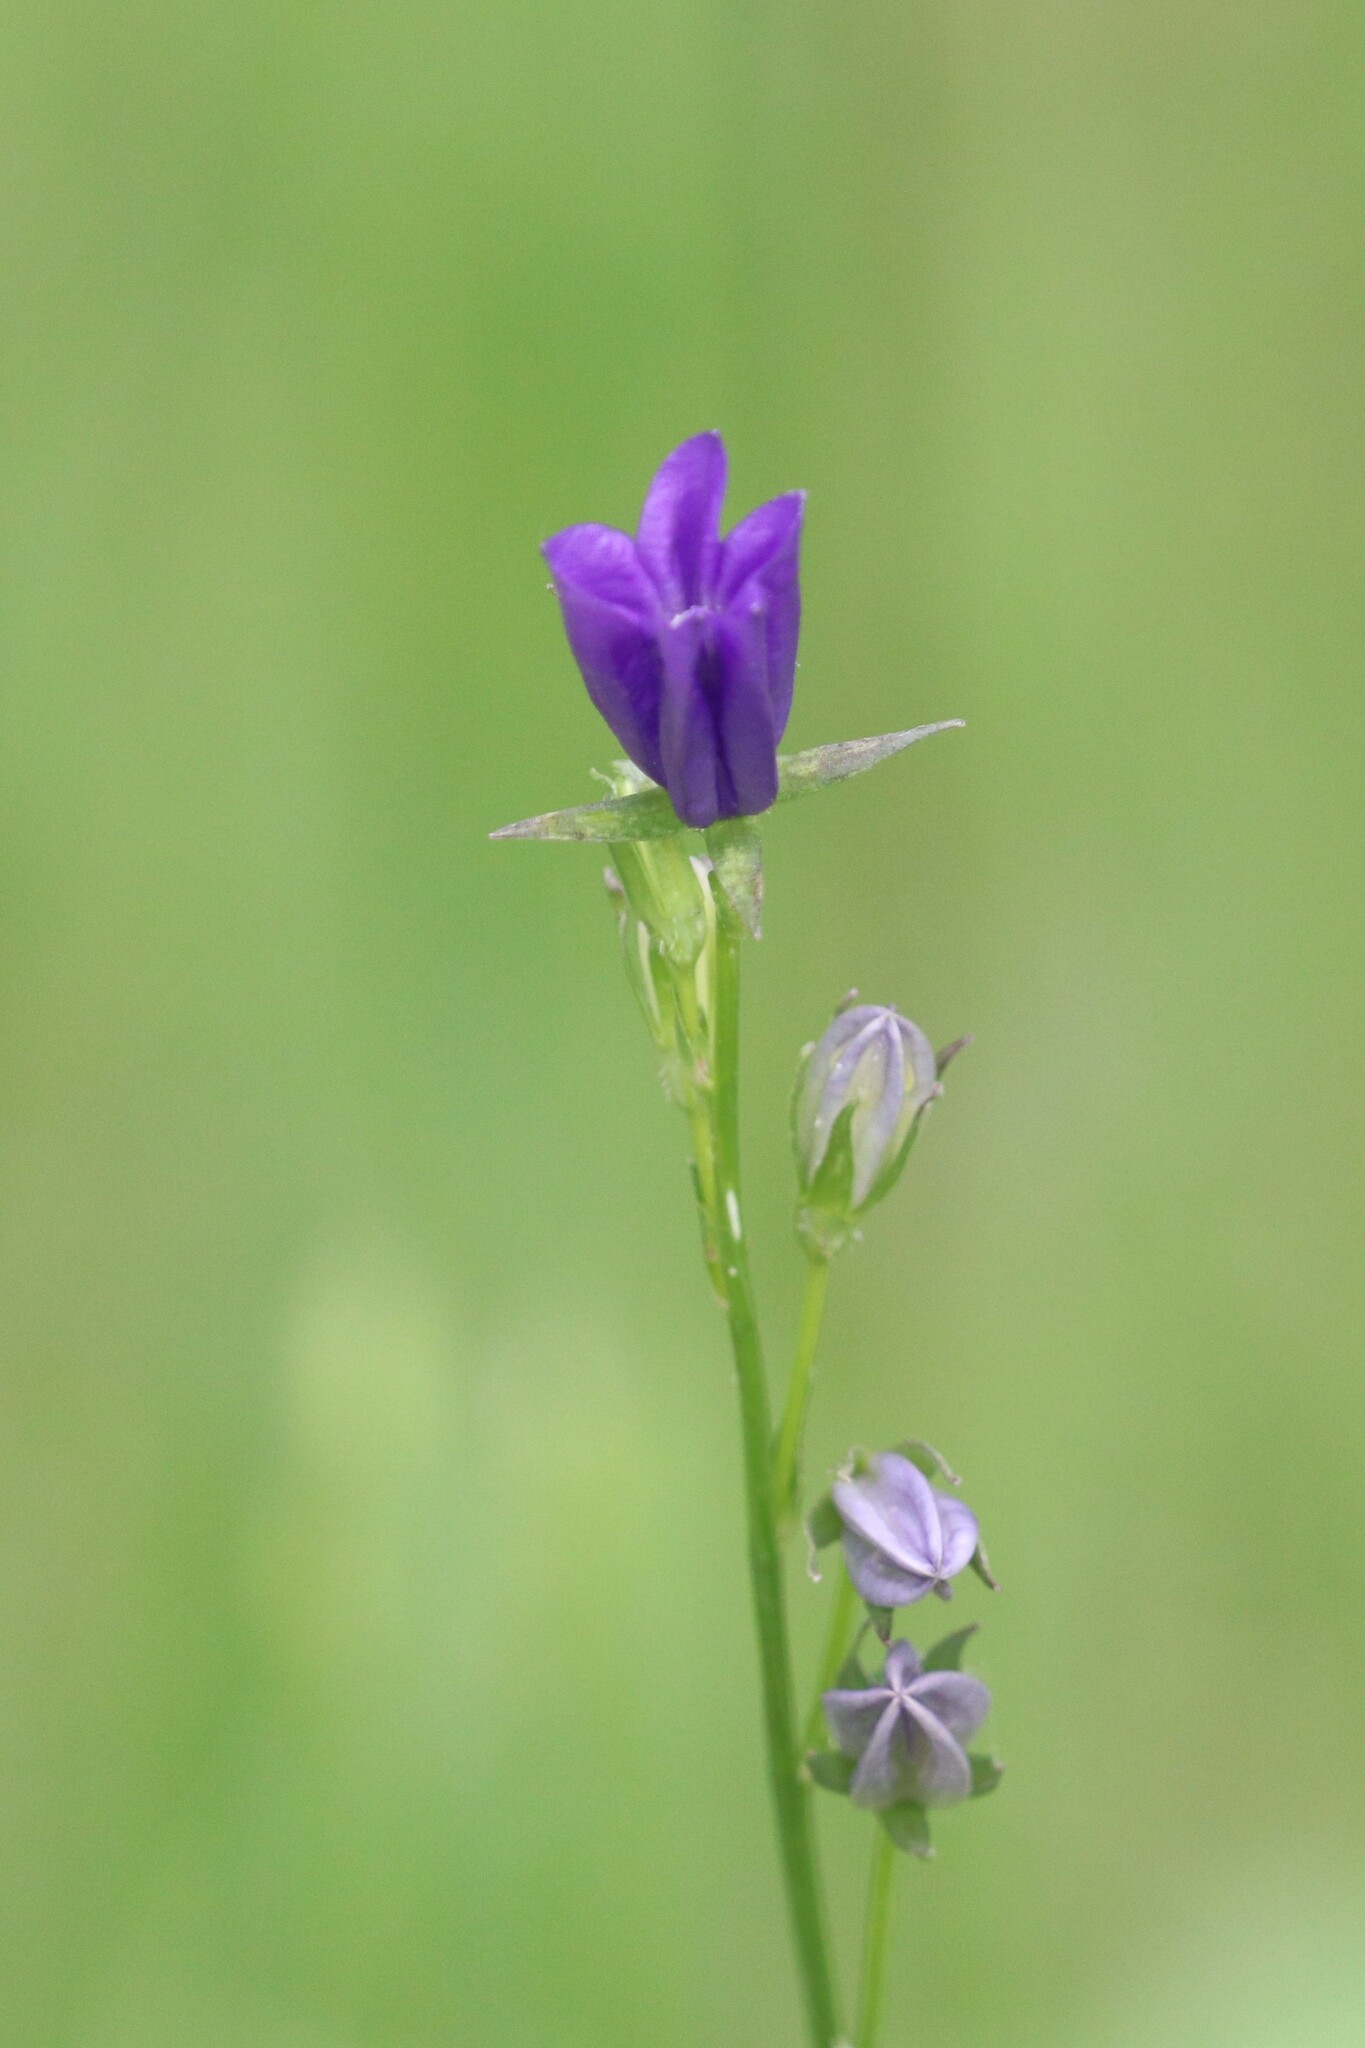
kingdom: Plantae
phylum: Tracheophyta
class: Magnoliopsida
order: Asterales
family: Campanulaceae
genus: Campanula
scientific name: Campanula persicifolia
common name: Peach-leaved bellflower
